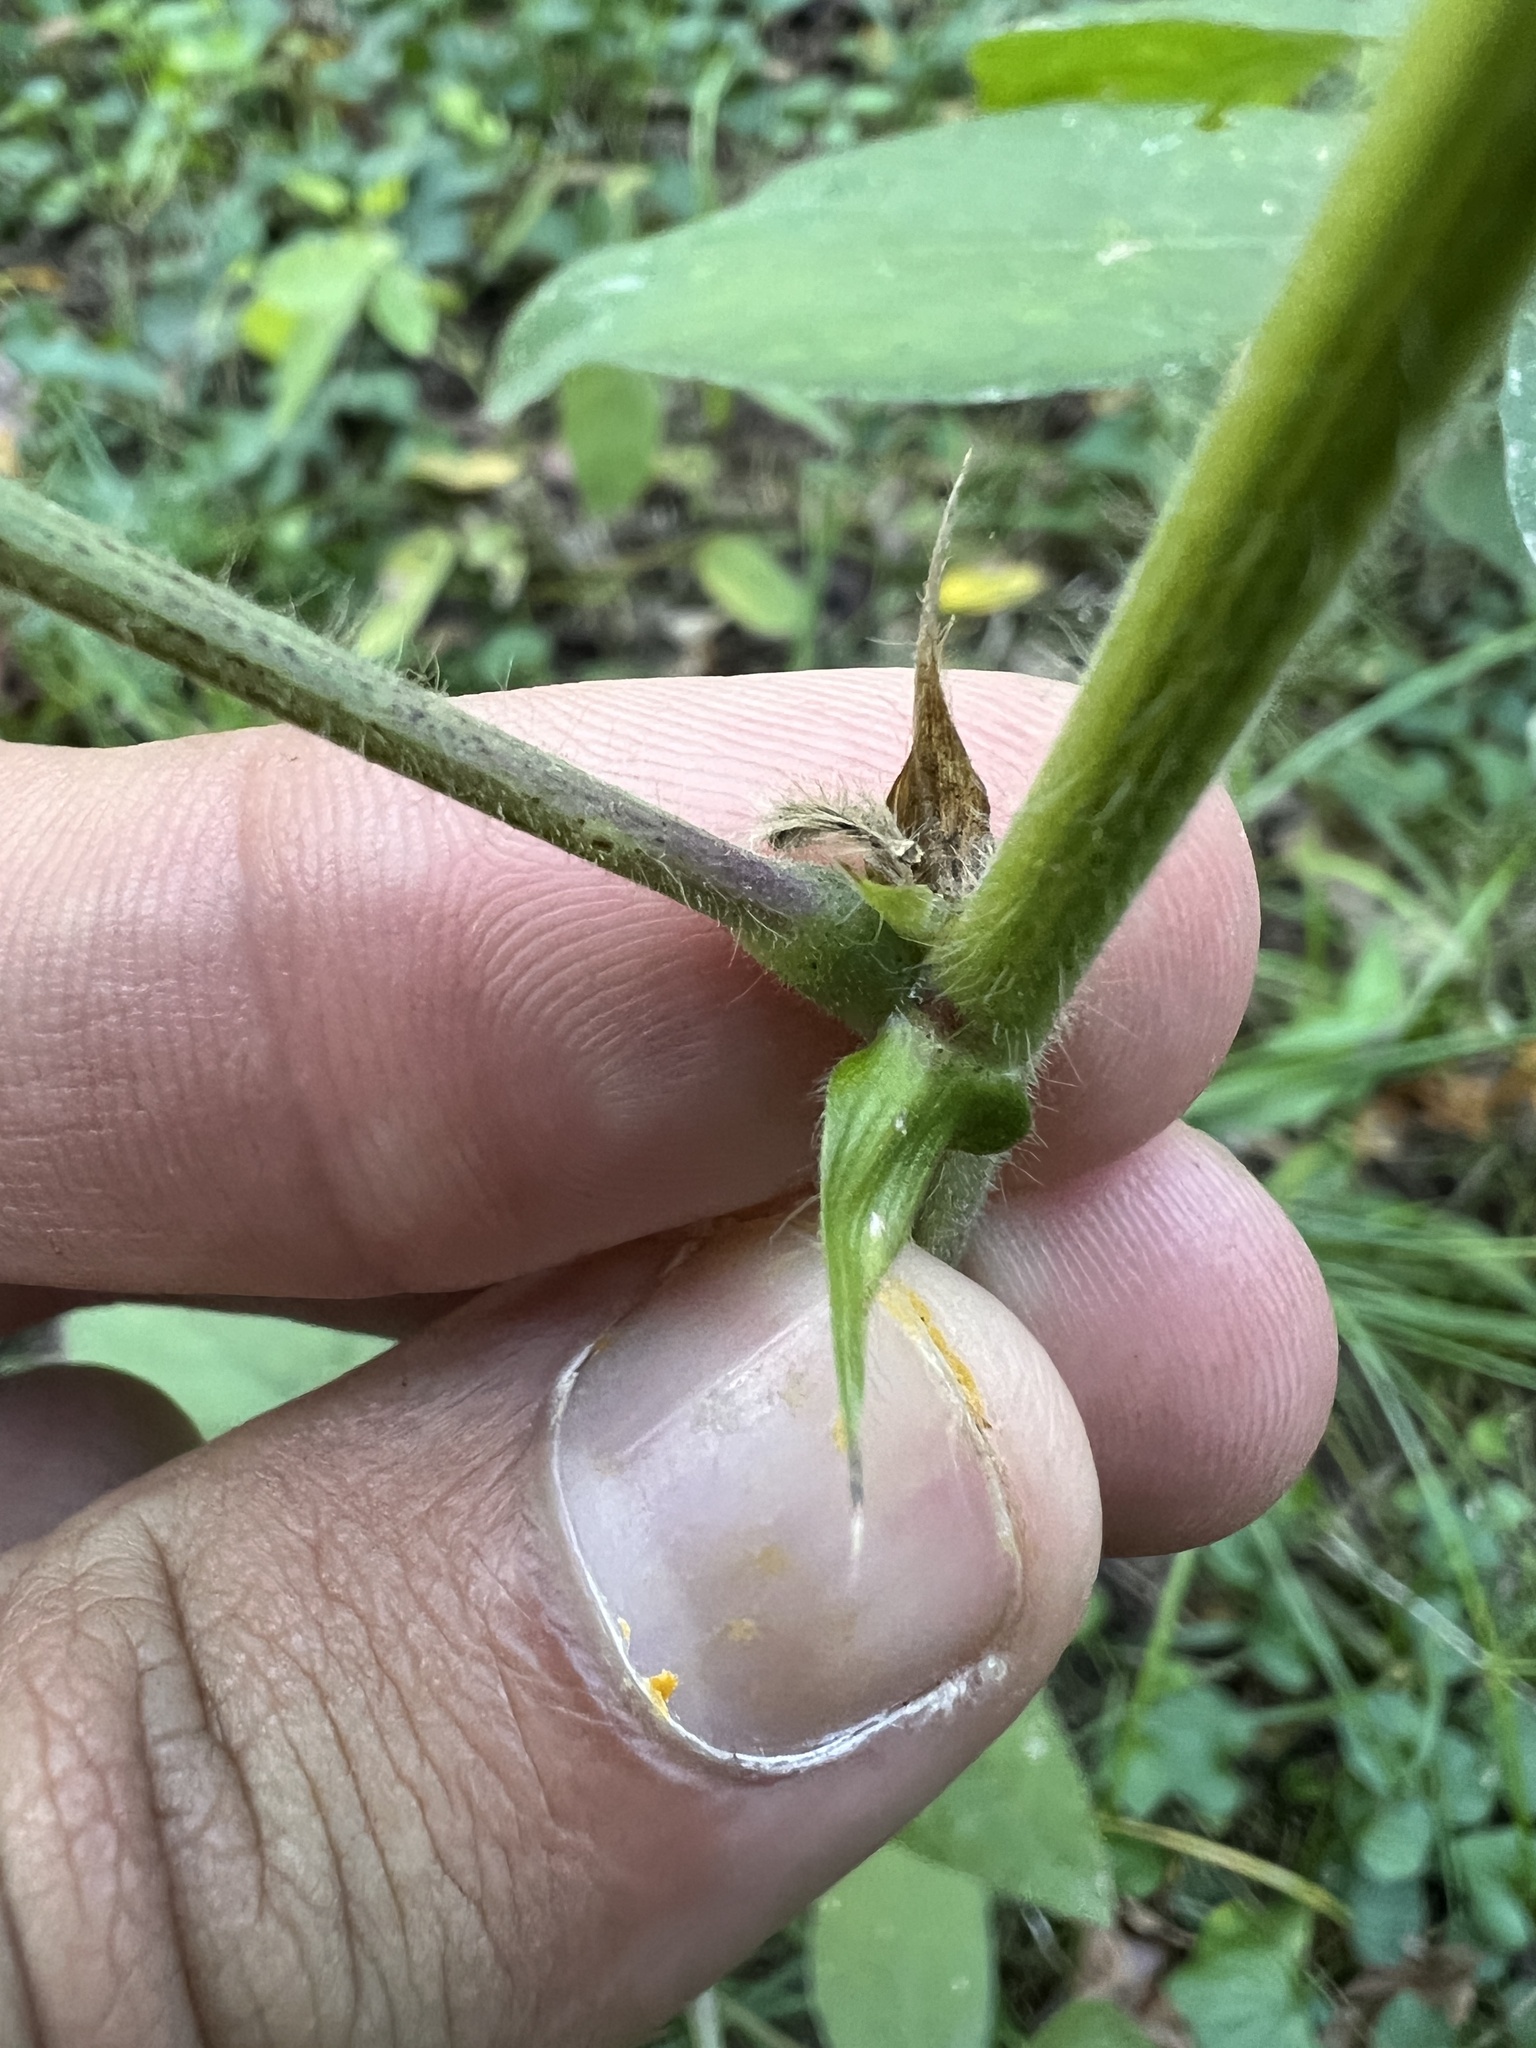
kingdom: Plantae
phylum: Tracheophyta
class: Magnoliopsida
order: Fabales
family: Fabaceae
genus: Desmodium
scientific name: Desmodium canescens
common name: Hoary tick-clover
